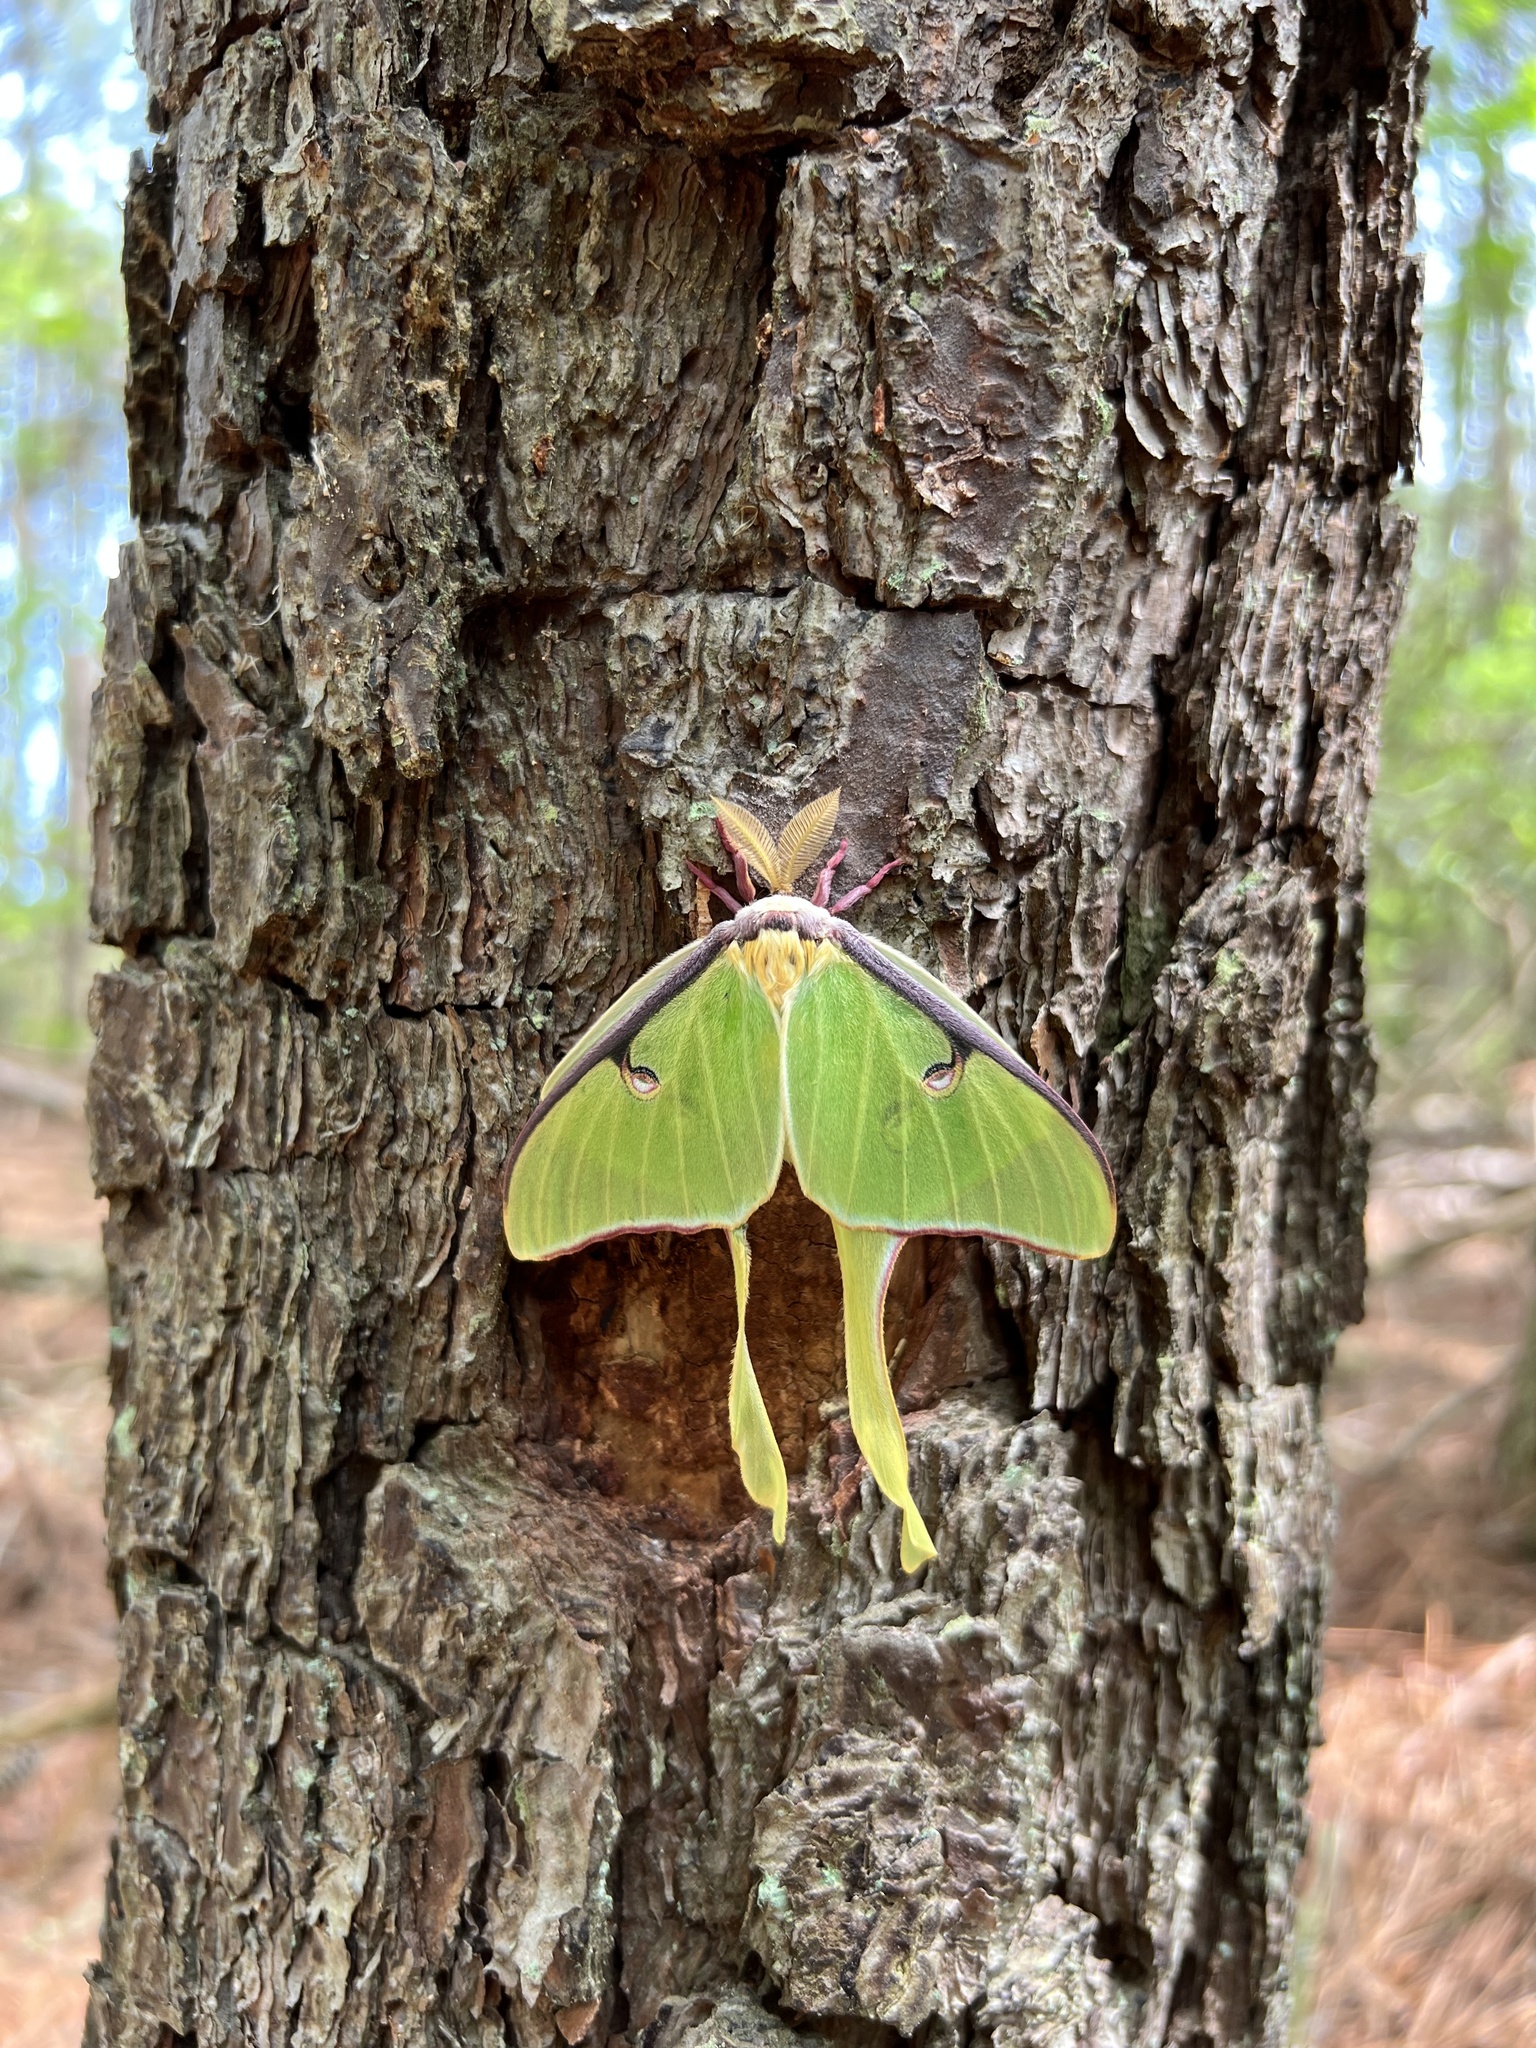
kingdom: Animalia
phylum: Arthropoda
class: Insecta
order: Lepidoptera
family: Saturniidae
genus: Actias
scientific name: Actias luna
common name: Luna moth
